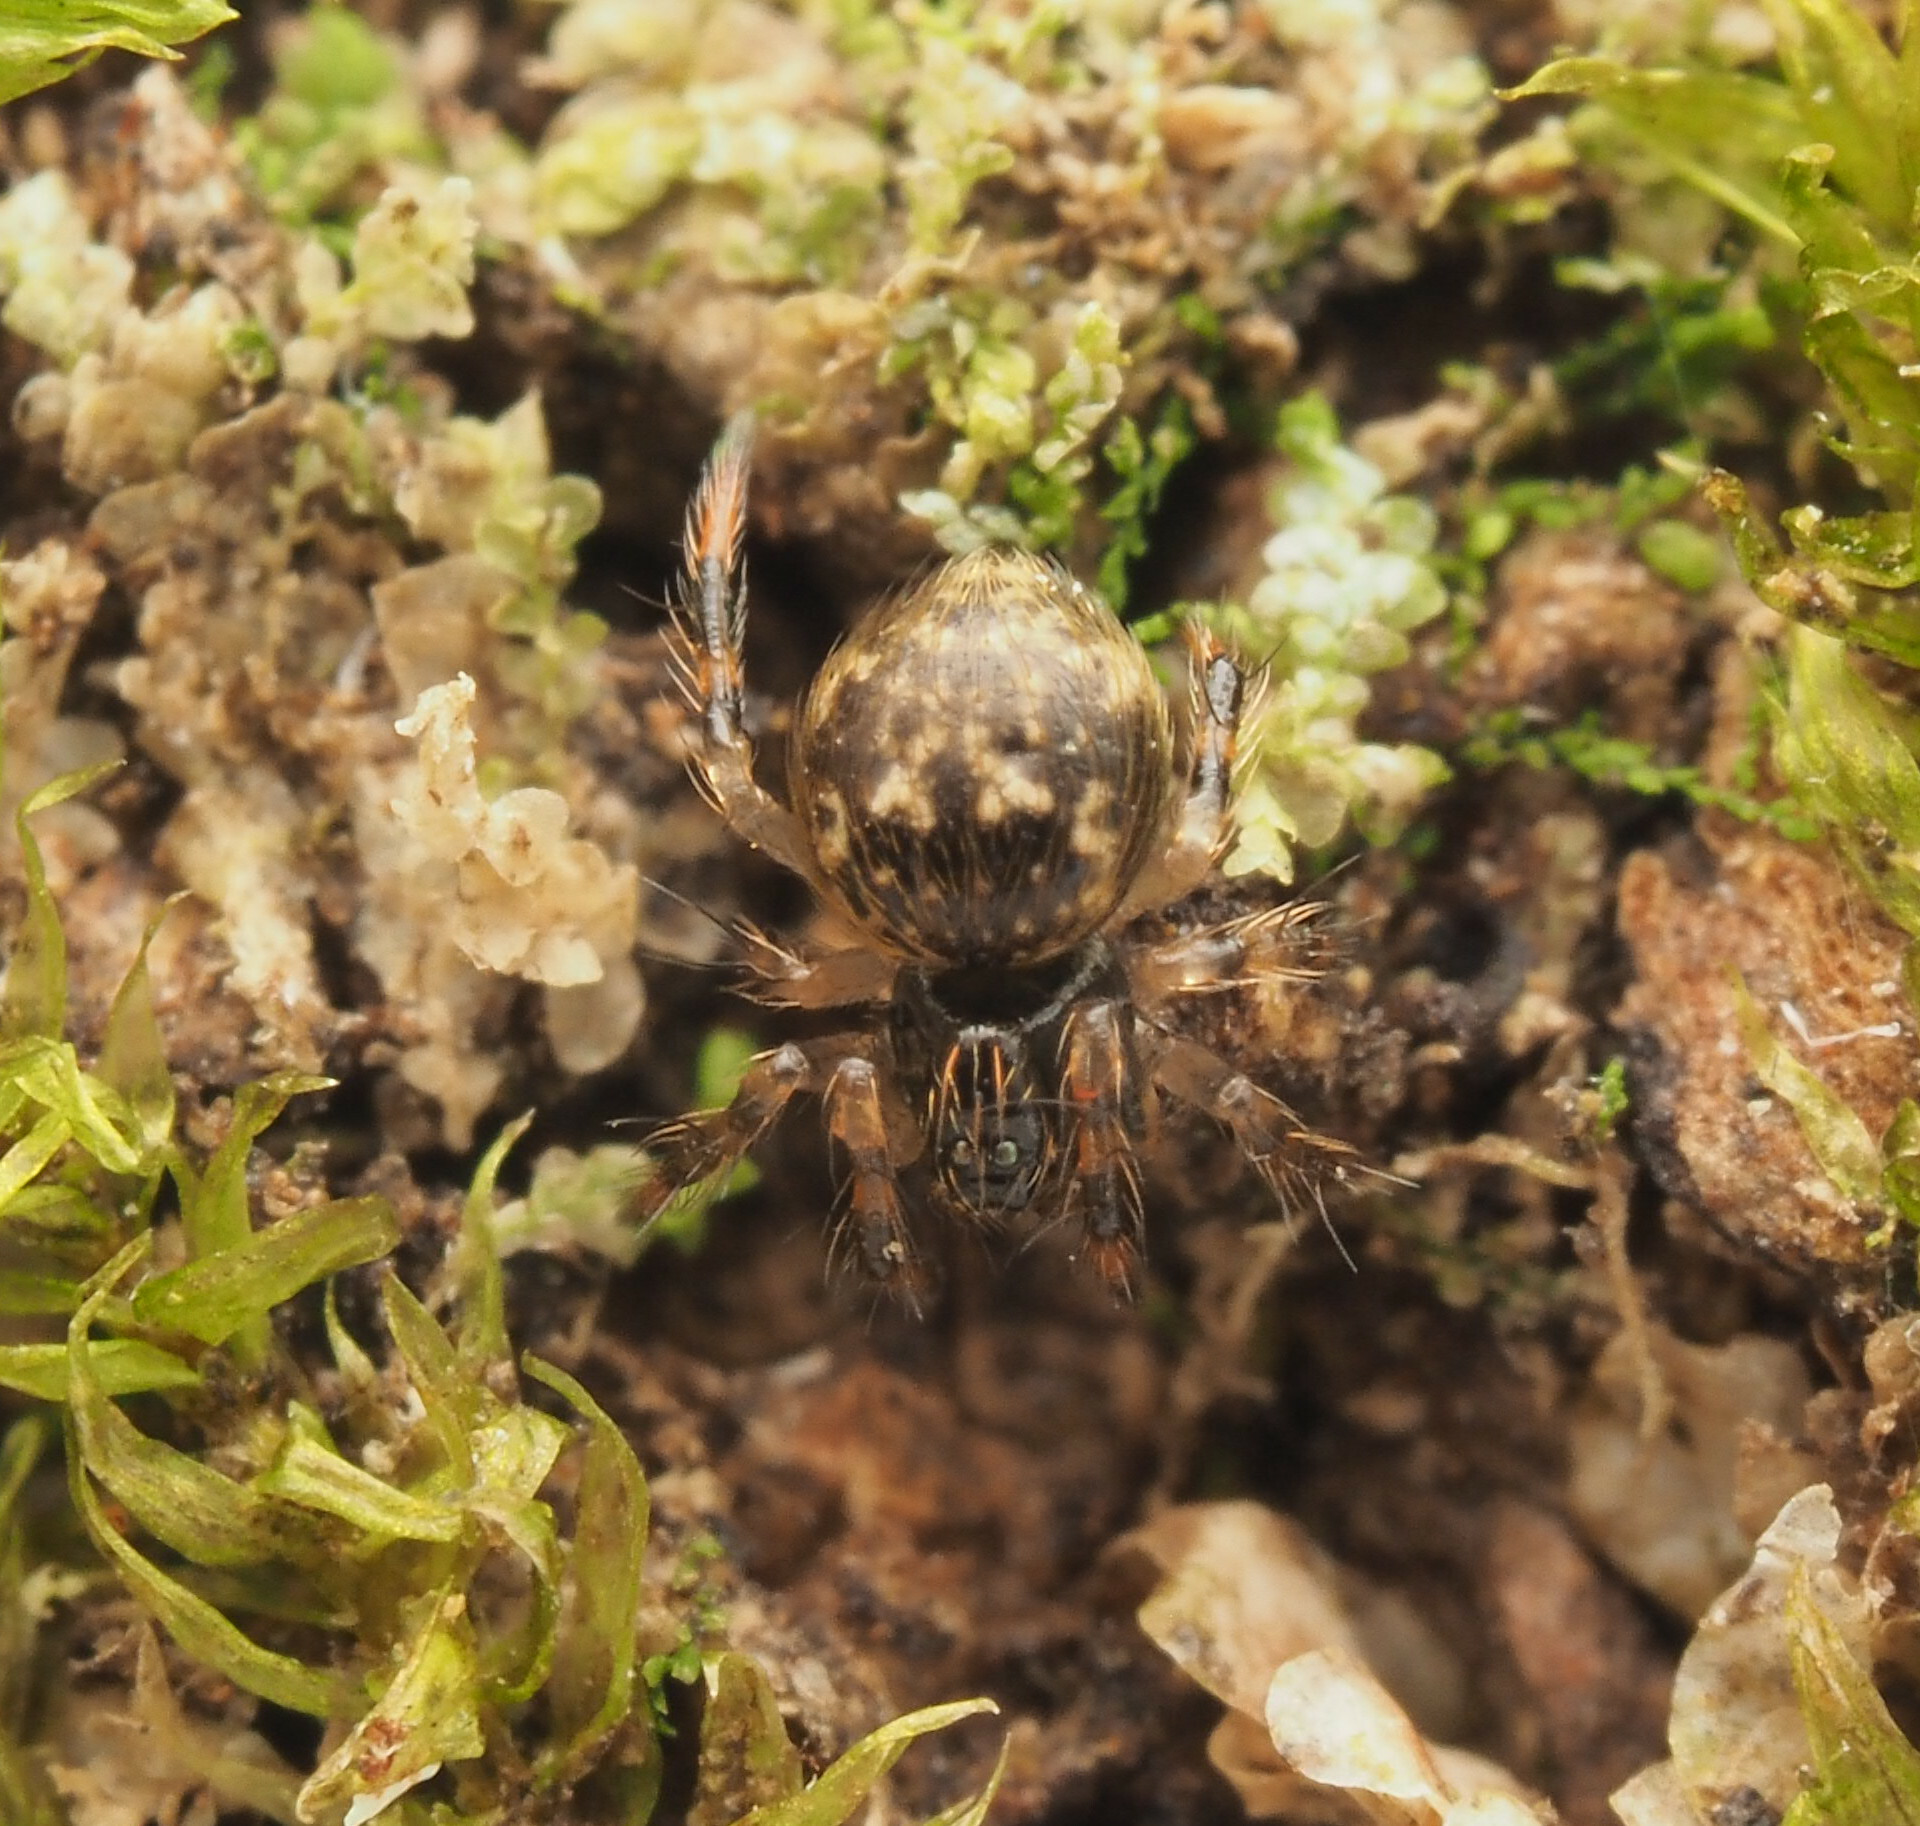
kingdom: Animalia
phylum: Arthropoda
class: Arachnida
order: Araneae
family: Theridiidae
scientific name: Theridiidae
